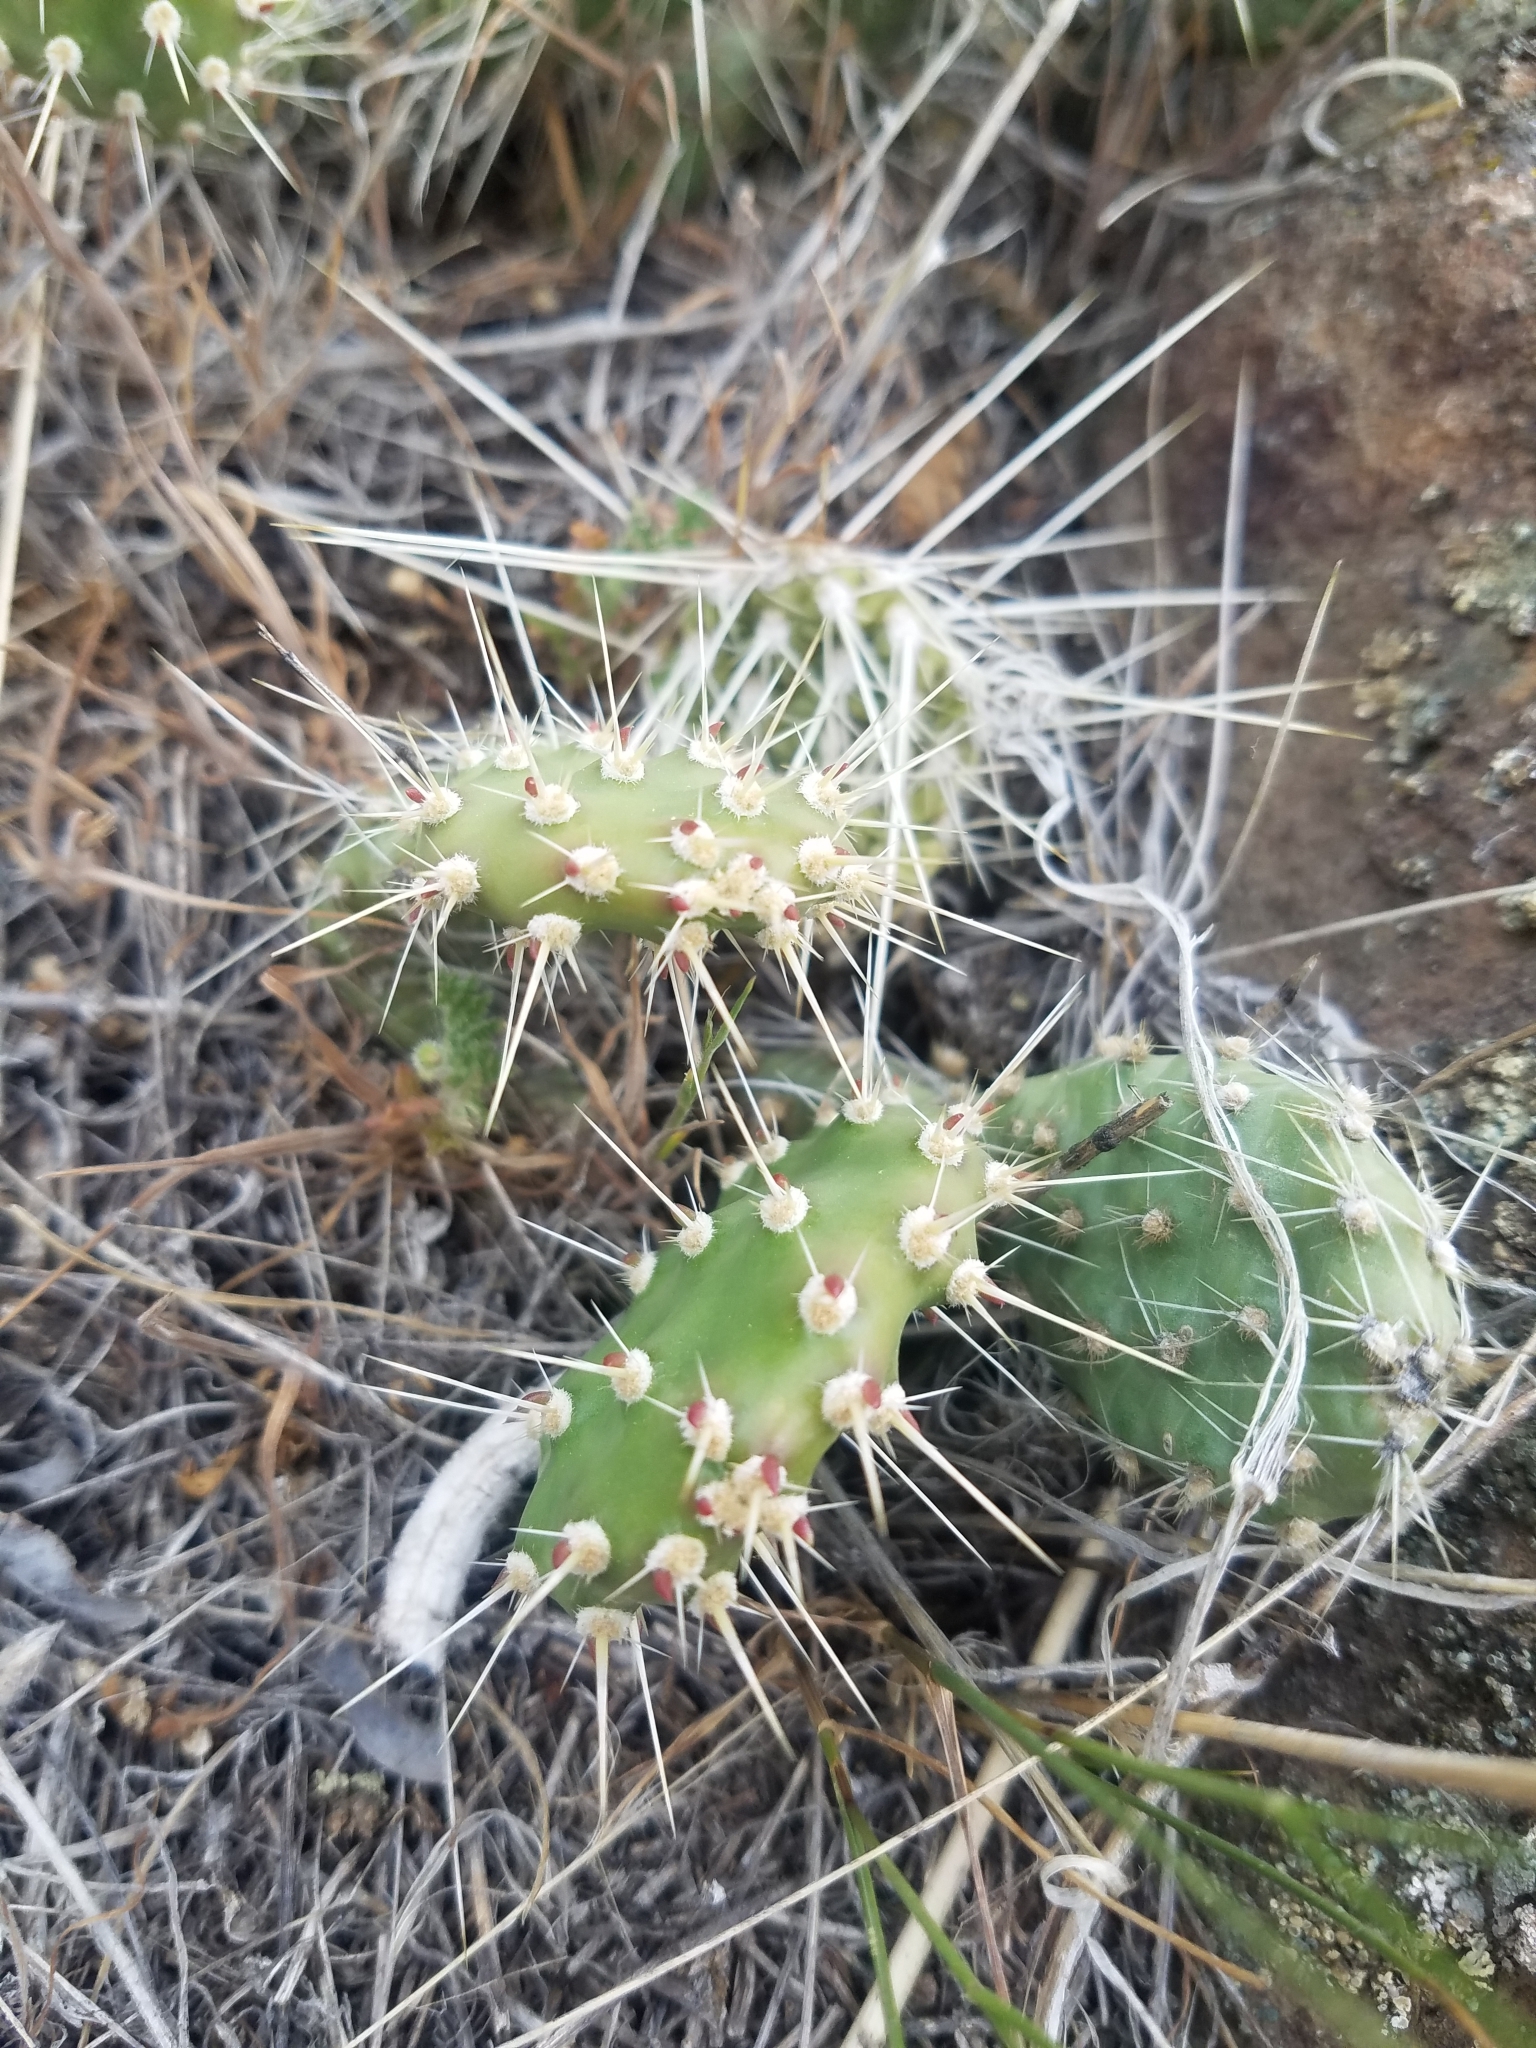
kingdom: Plantae
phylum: Tracheophyta
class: Magnoliopsida
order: Caryophyllales
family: Cactaceae
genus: Opuntia
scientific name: Opuntia columbiana
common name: Columbia prickly-pear
